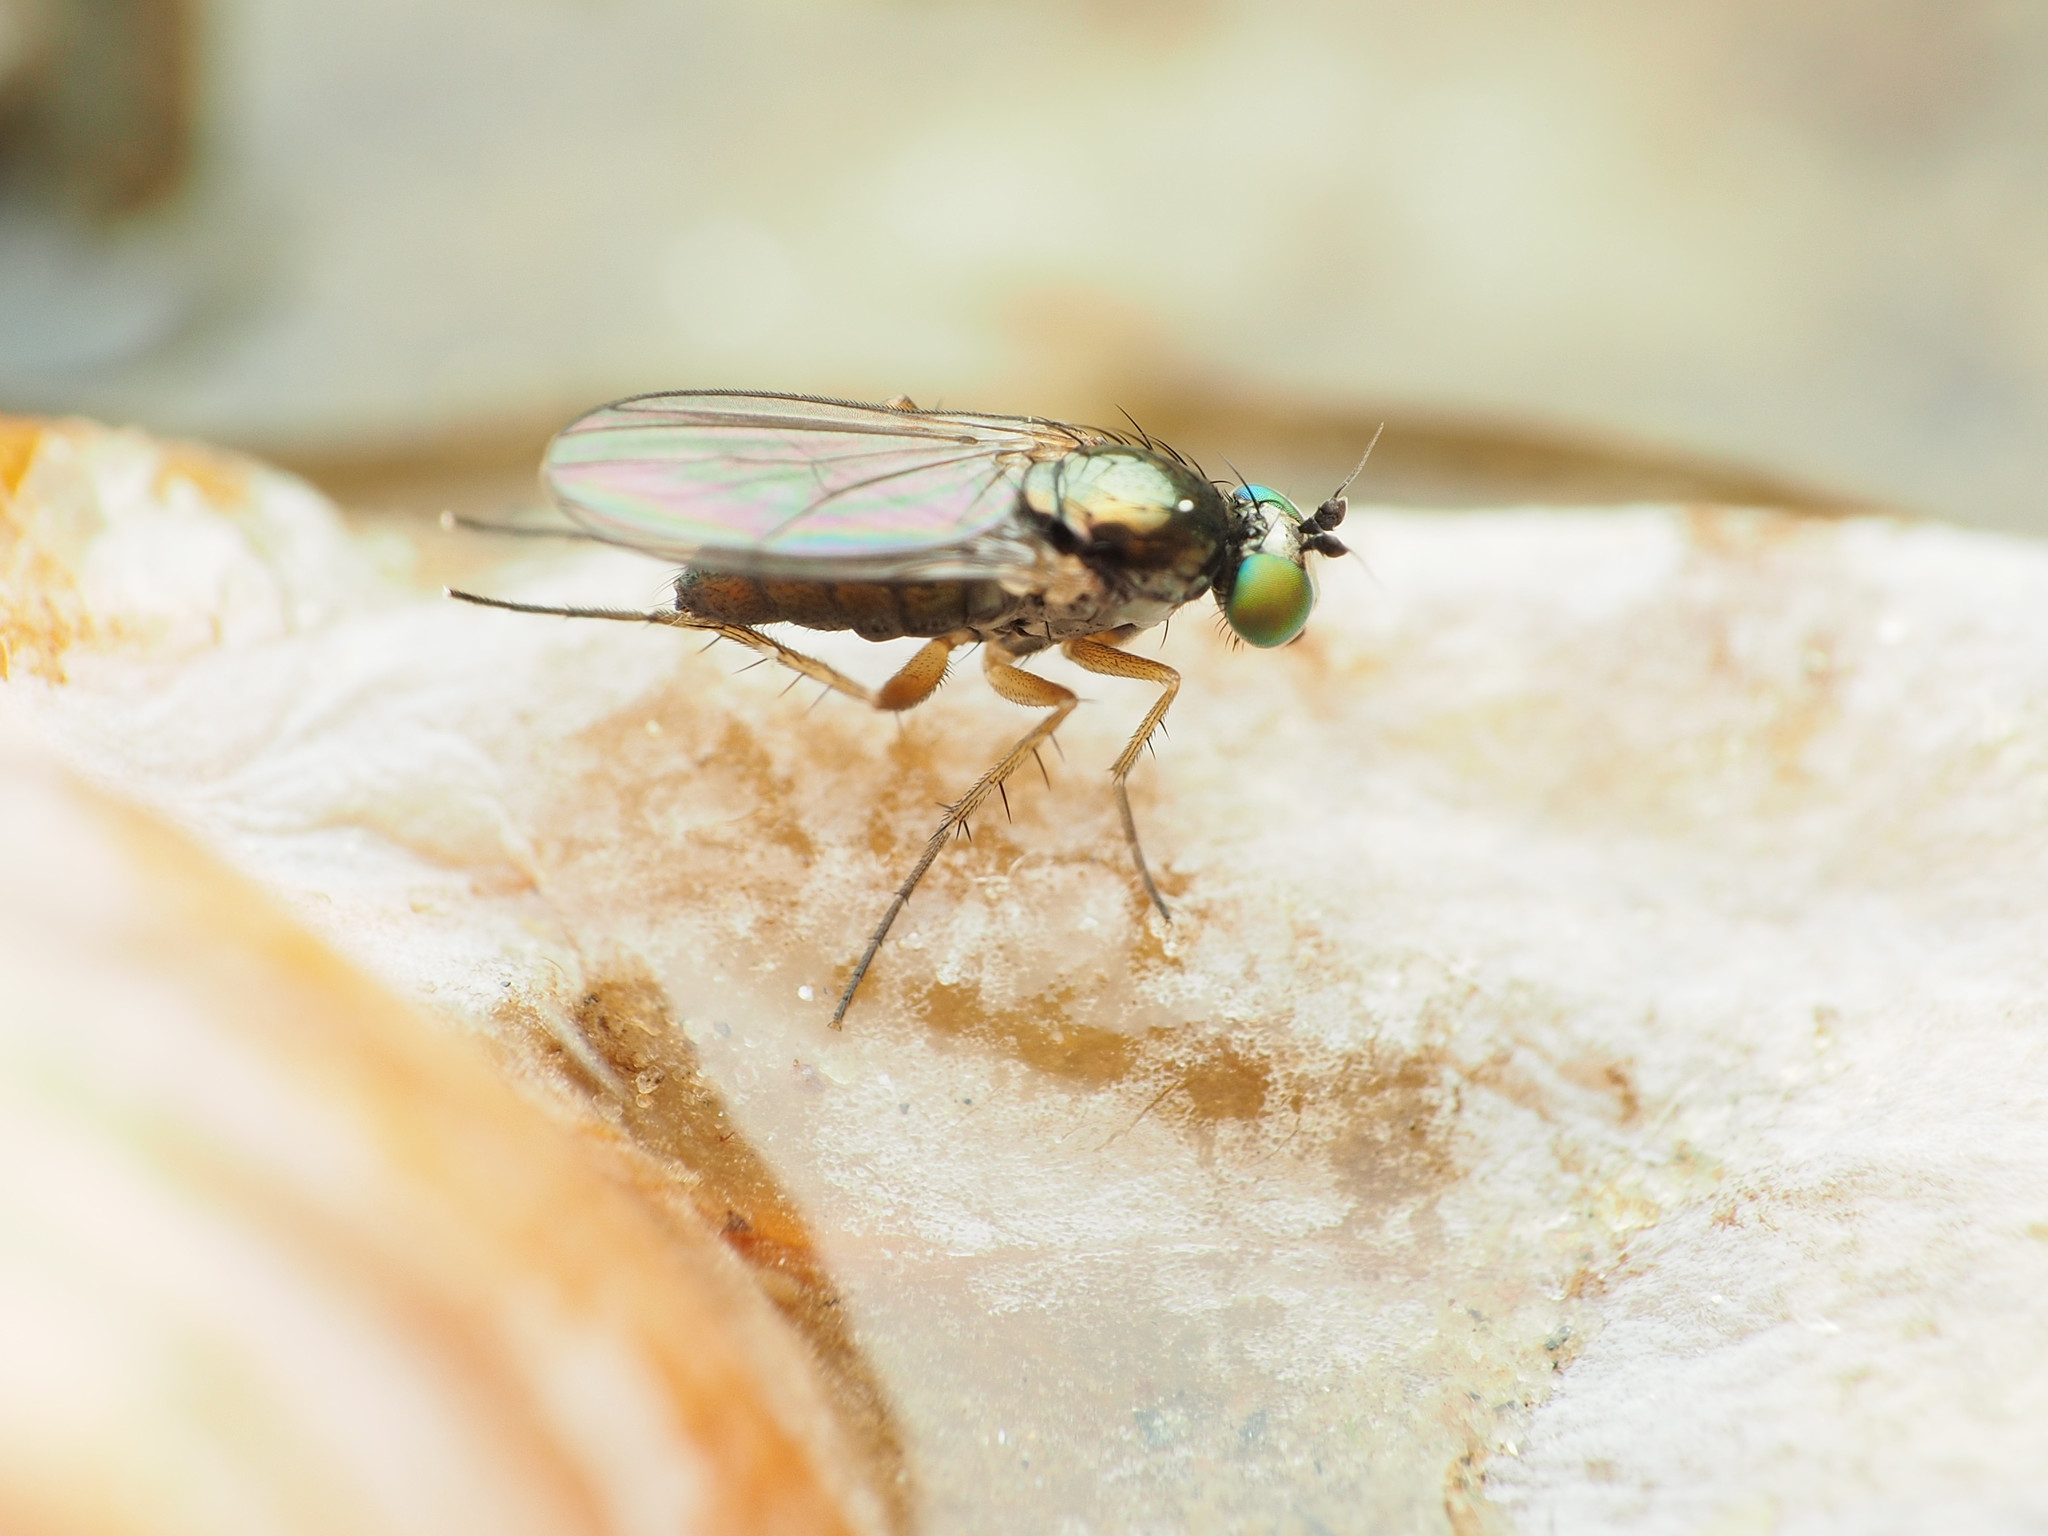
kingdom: Animalia
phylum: Arthropoda
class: Insecta
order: Diptera
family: Dolichopodidae
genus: Gymnopternus
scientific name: Gymnopternus meniscus
